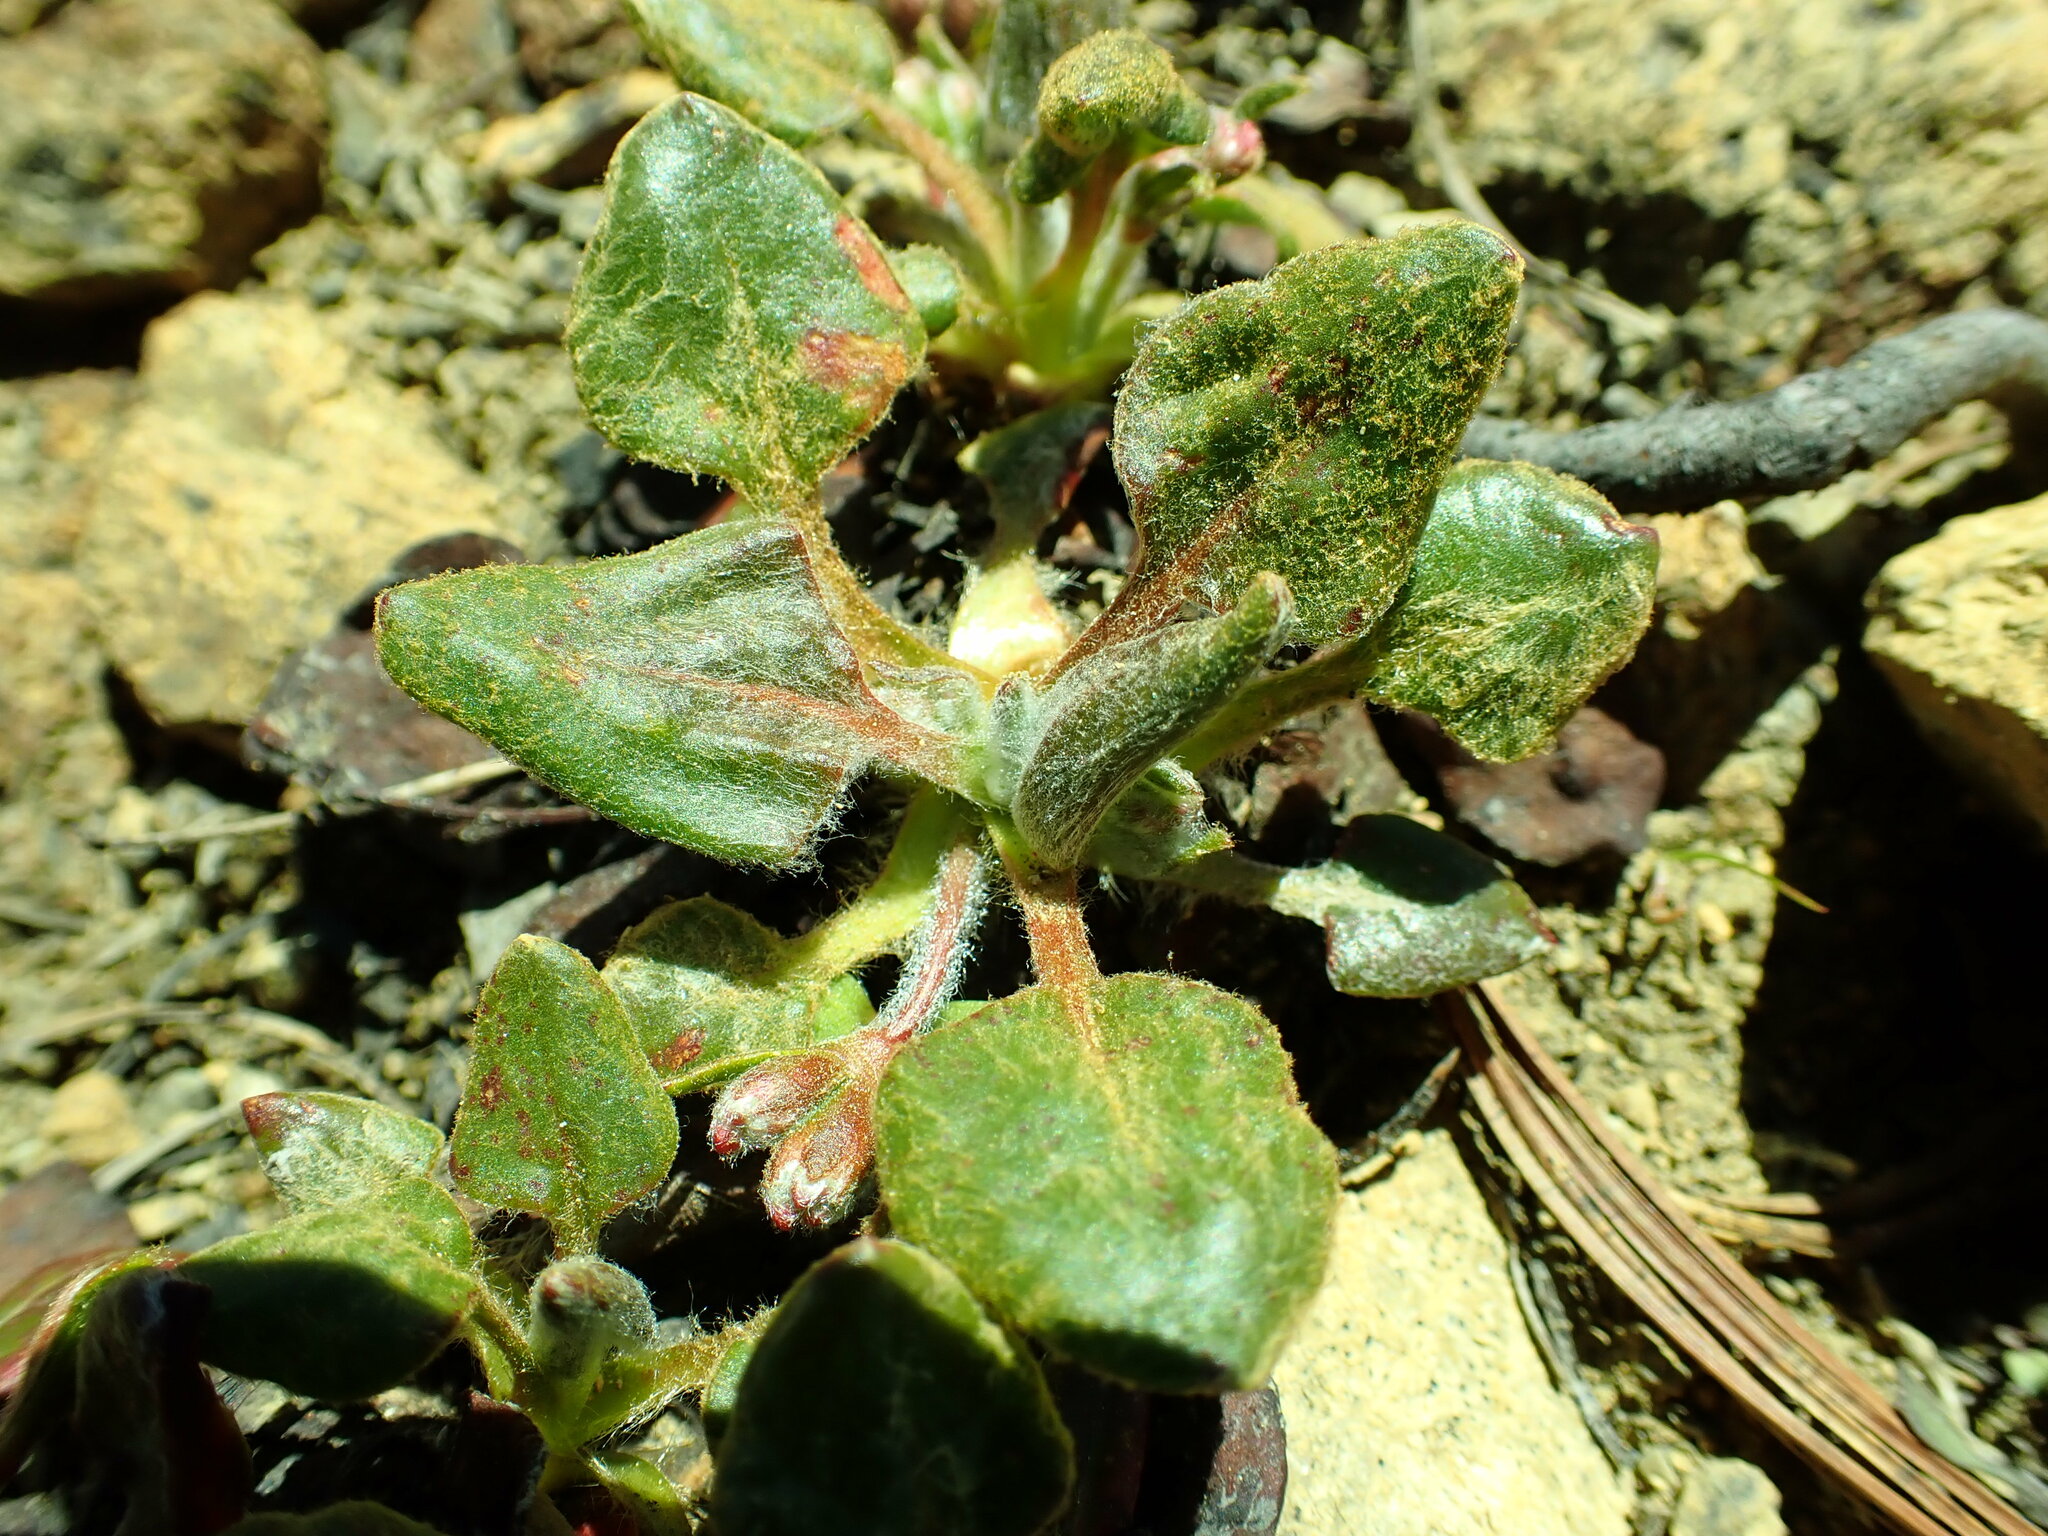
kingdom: Plantae
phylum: Tracheophyta
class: Magnoliopsida
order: Caryophyllales
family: Polygonaceae
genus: Eriogonum
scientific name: Eriogonum pyrolifolium
